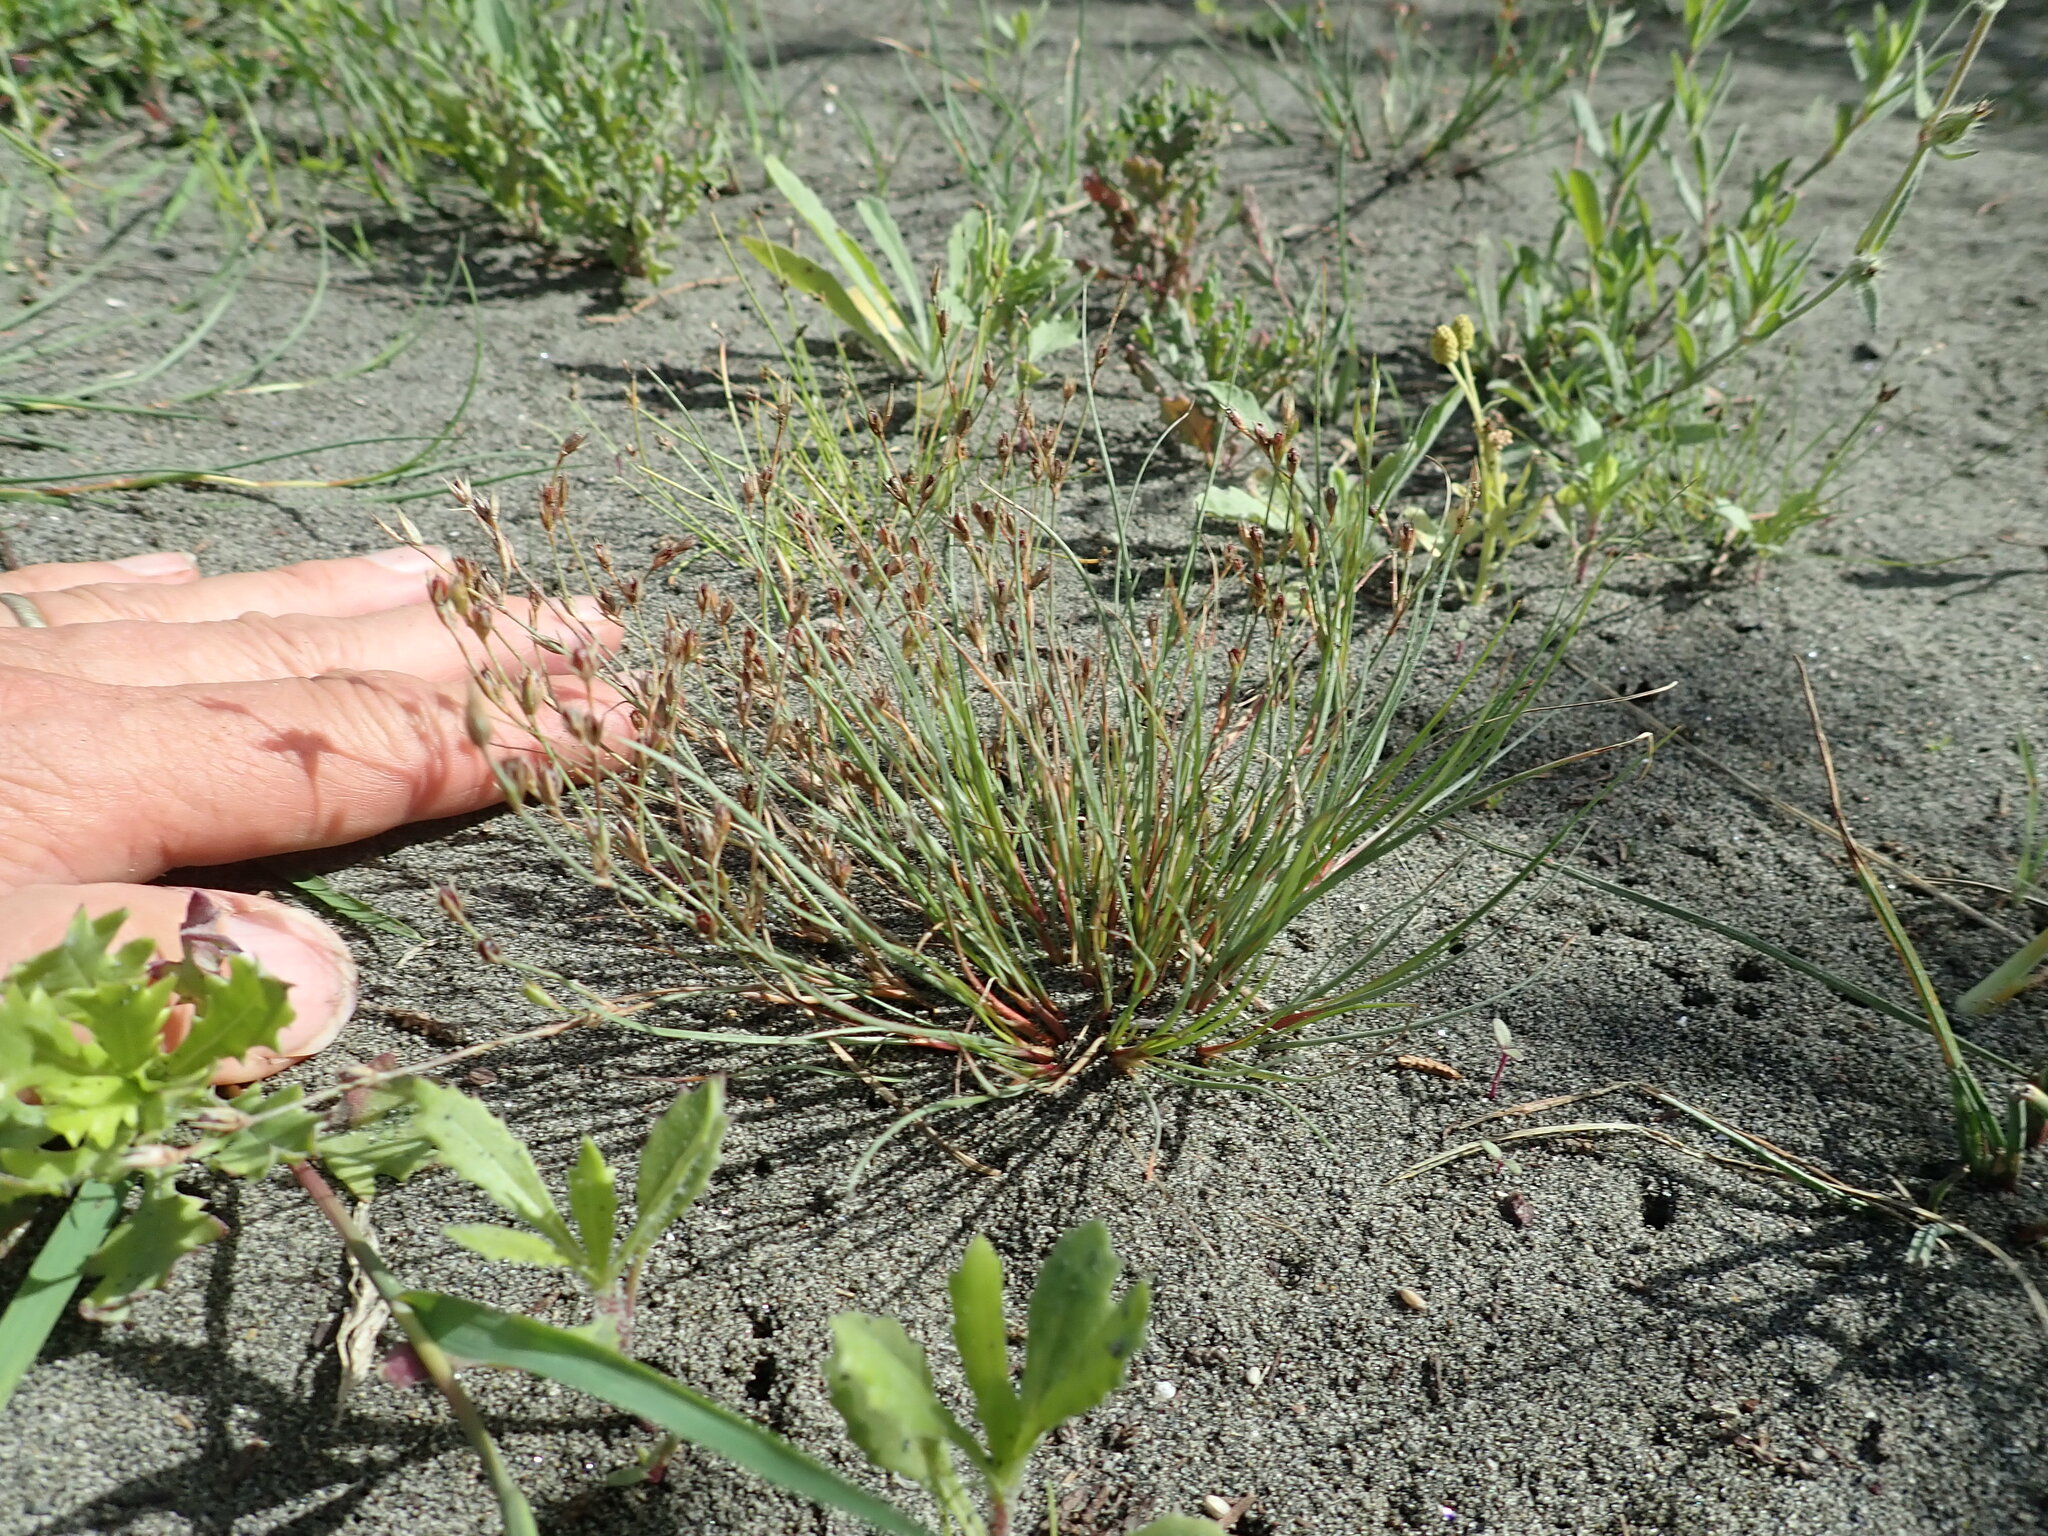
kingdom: Plantae
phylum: Tracheophyta
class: Liliopsida
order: Poales
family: Juncaceae
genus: Juncus
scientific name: Juncus bufonius
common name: Toad rush
